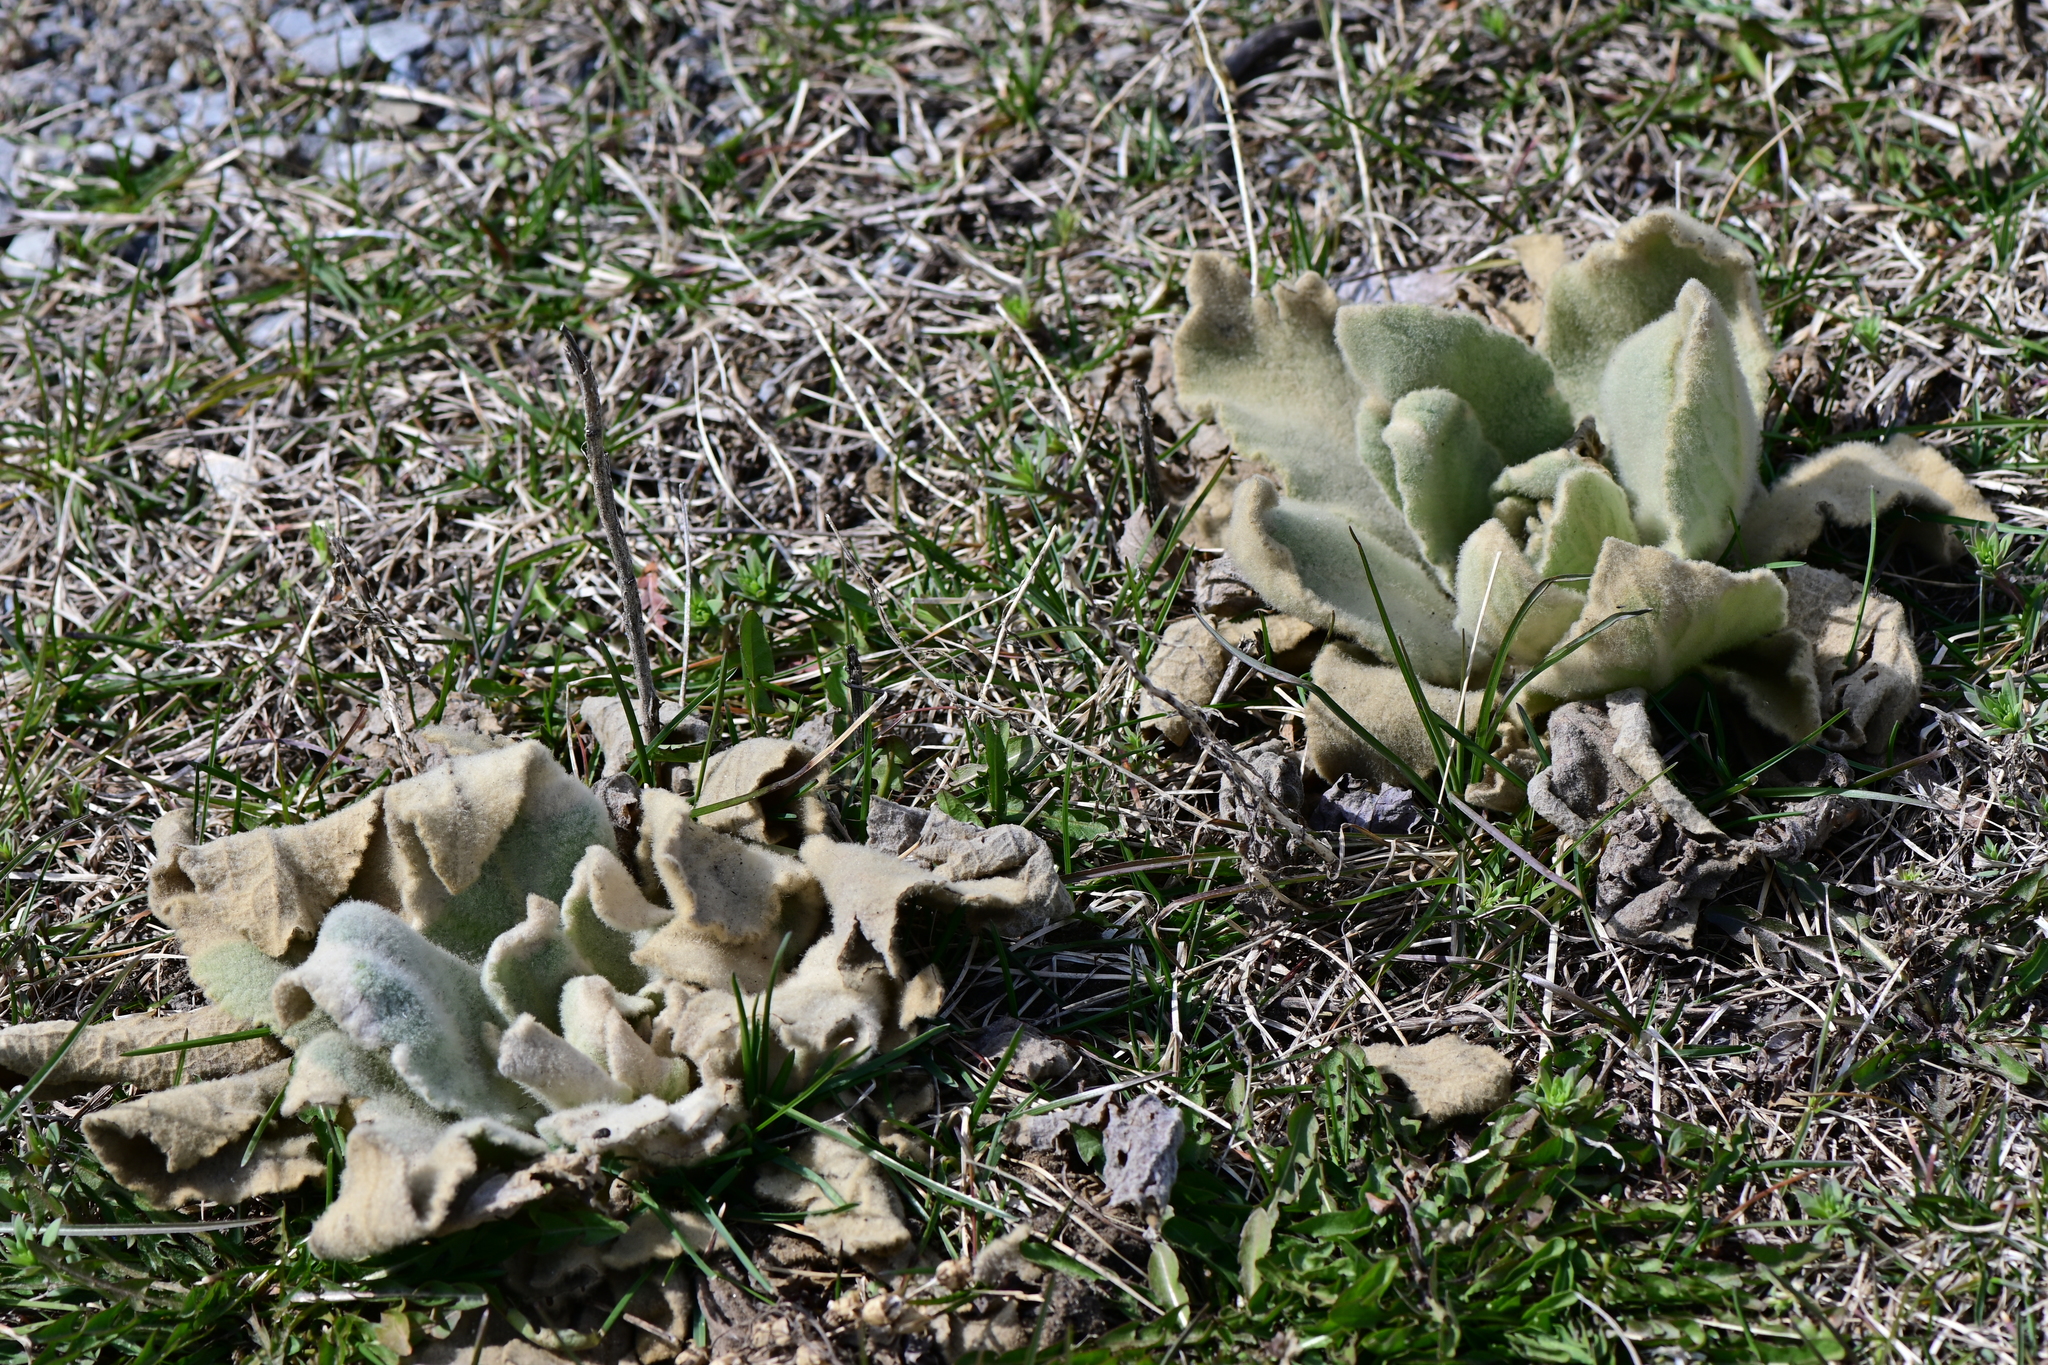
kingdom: Plantae
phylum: Tracheophyta
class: Magnoliopsida
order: Lamiales
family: Scrophulariaceae
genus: Verbascum
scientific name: Verbascum thapsus
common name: Common mullein
